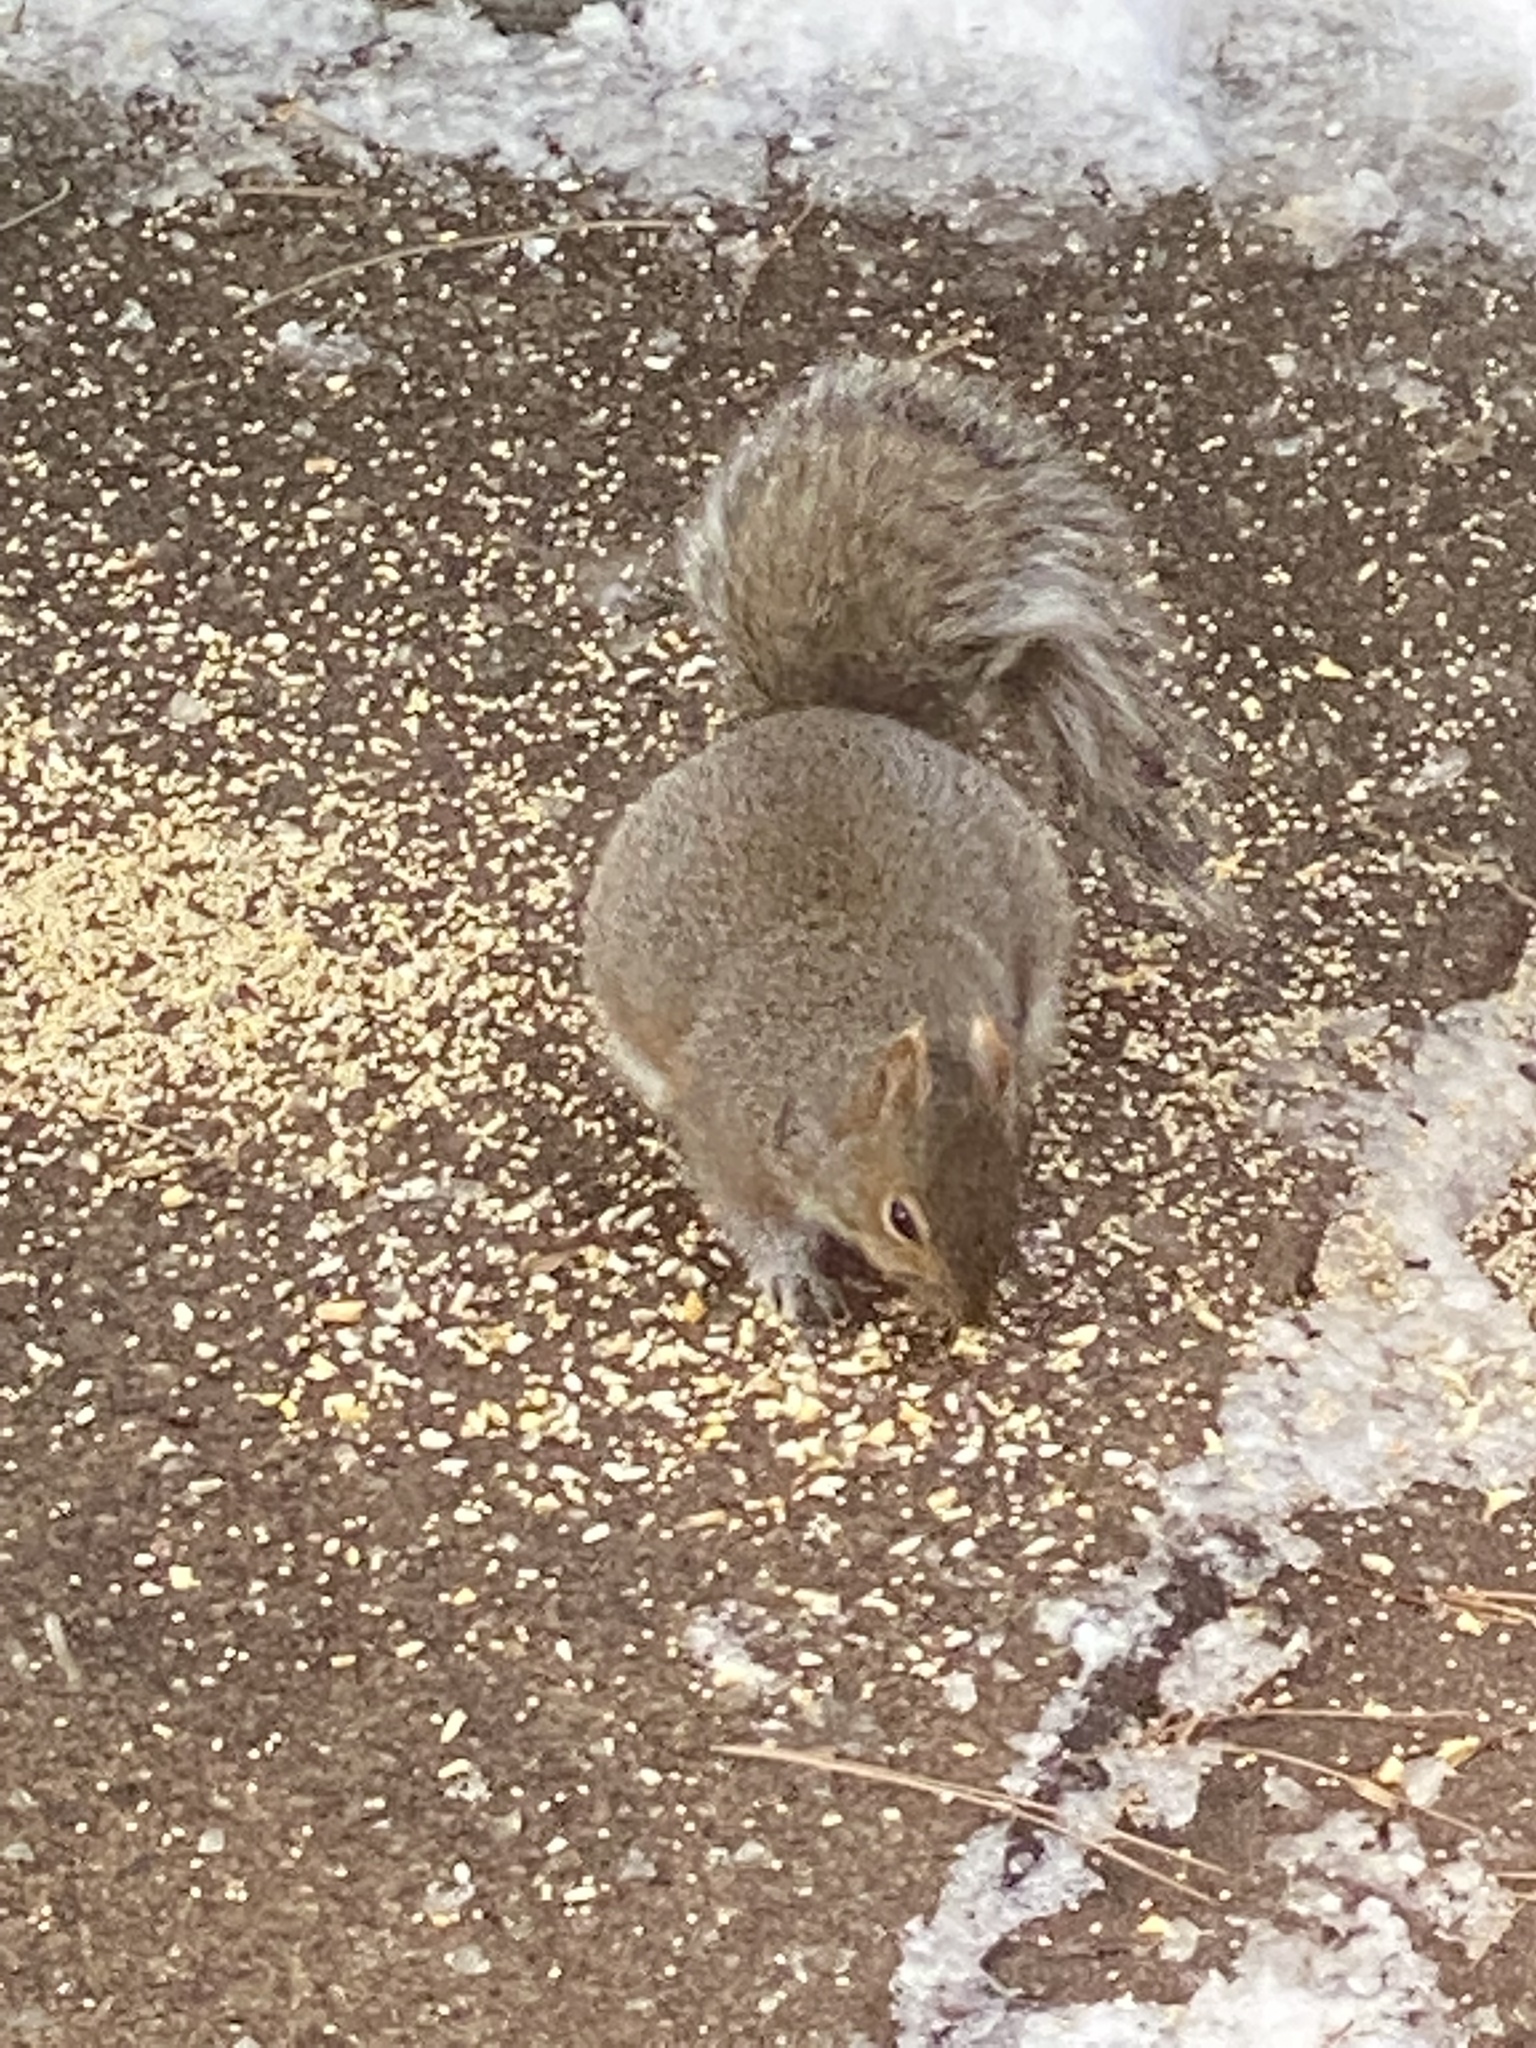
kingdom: Animalia
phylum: Chordata
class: Mammalia
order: Rodentia
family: Sciuridae
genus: Sciurus
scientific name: Sciurus carolinensis
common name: Eastern gray squirrel
